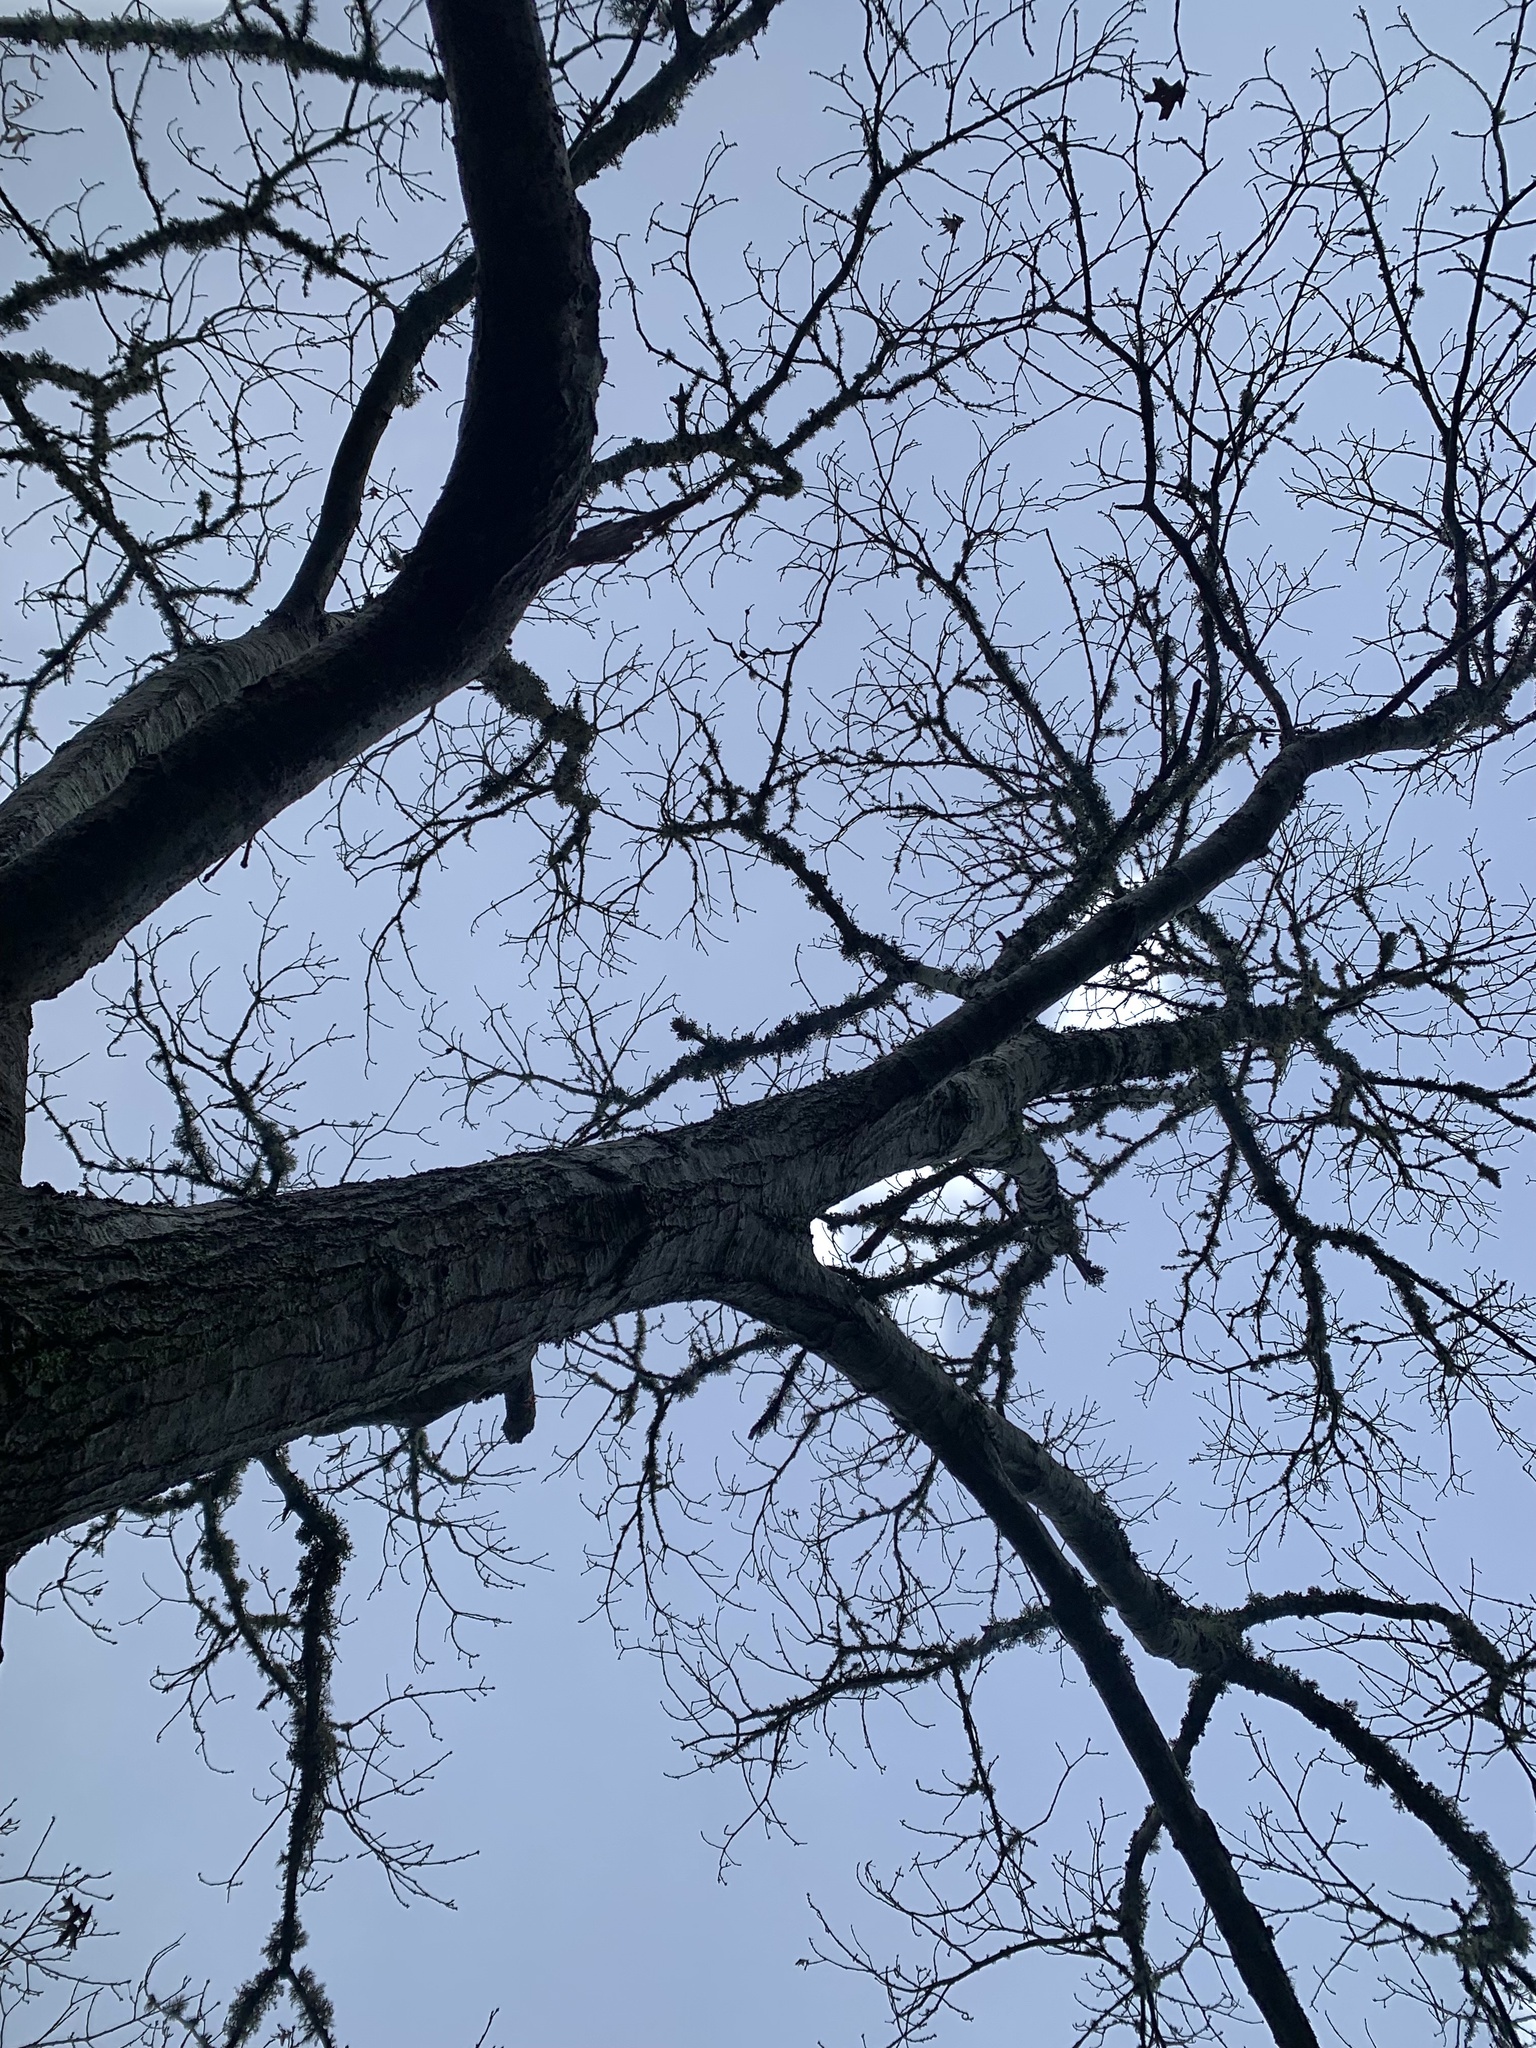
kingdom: Plantae
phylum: Tracheophyta
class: Magnoliopsida
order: Fagales
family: Fagaceae
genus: Quercus
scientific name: Quercus coccinea
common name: Scarlet oak
